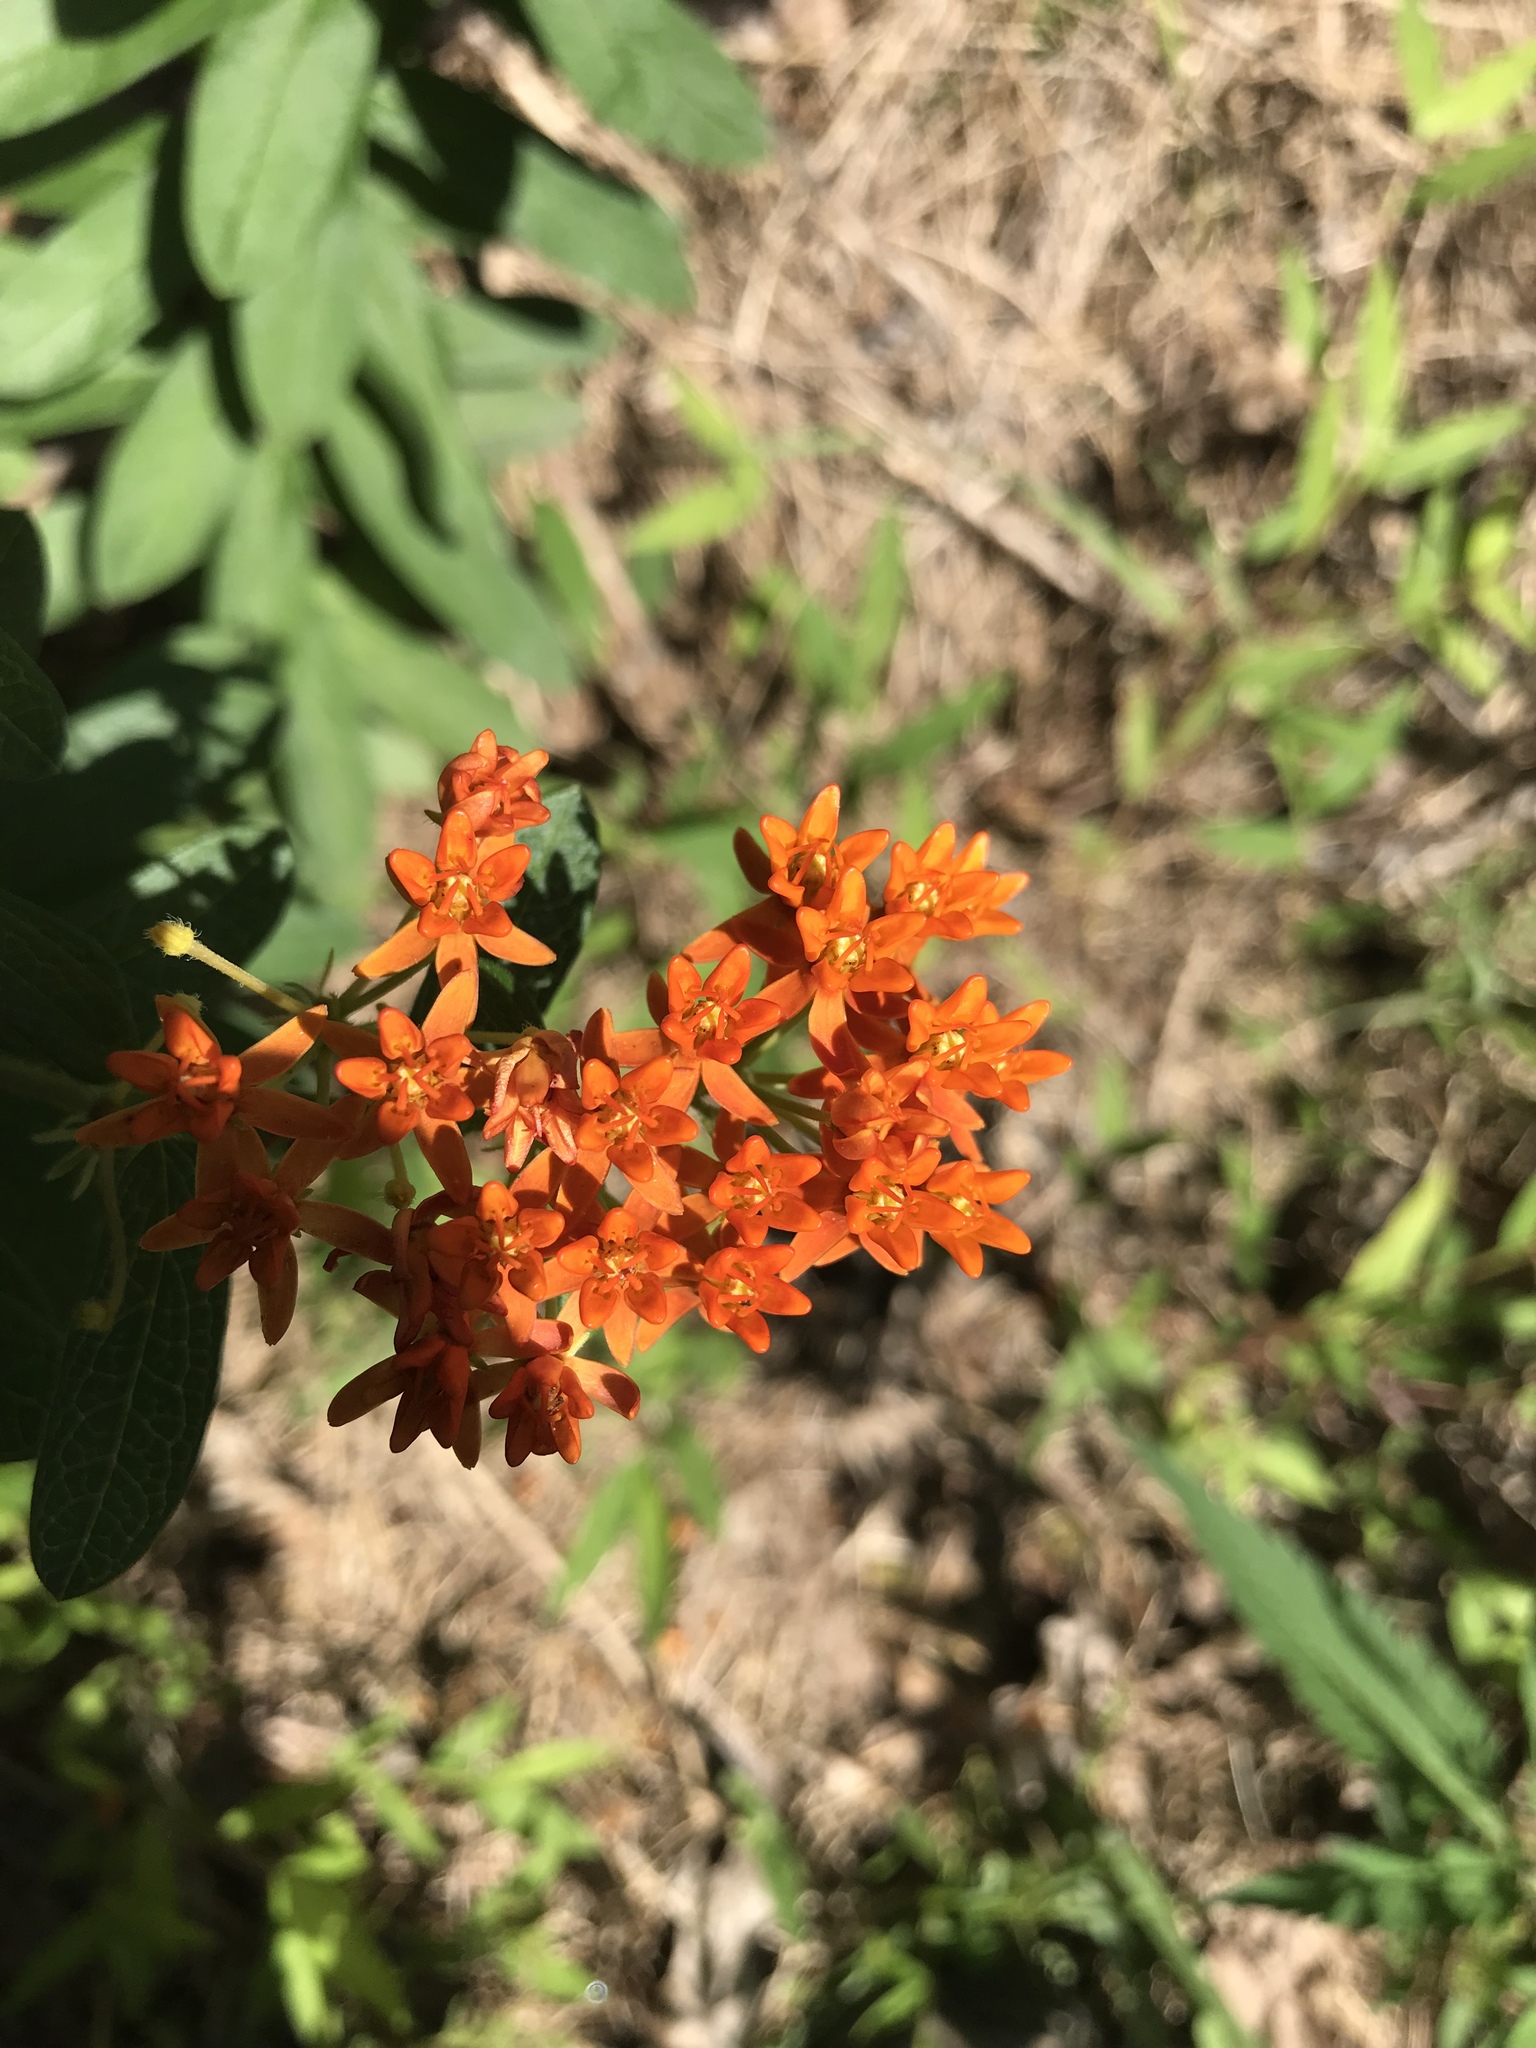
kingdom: Plantae
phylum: Tracheophyta
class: Magnoliopsida
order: Gentianales
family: Apocynaceae
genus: Asclepias
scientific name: Asclepias tuberosa
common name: Butterfly milkweed
